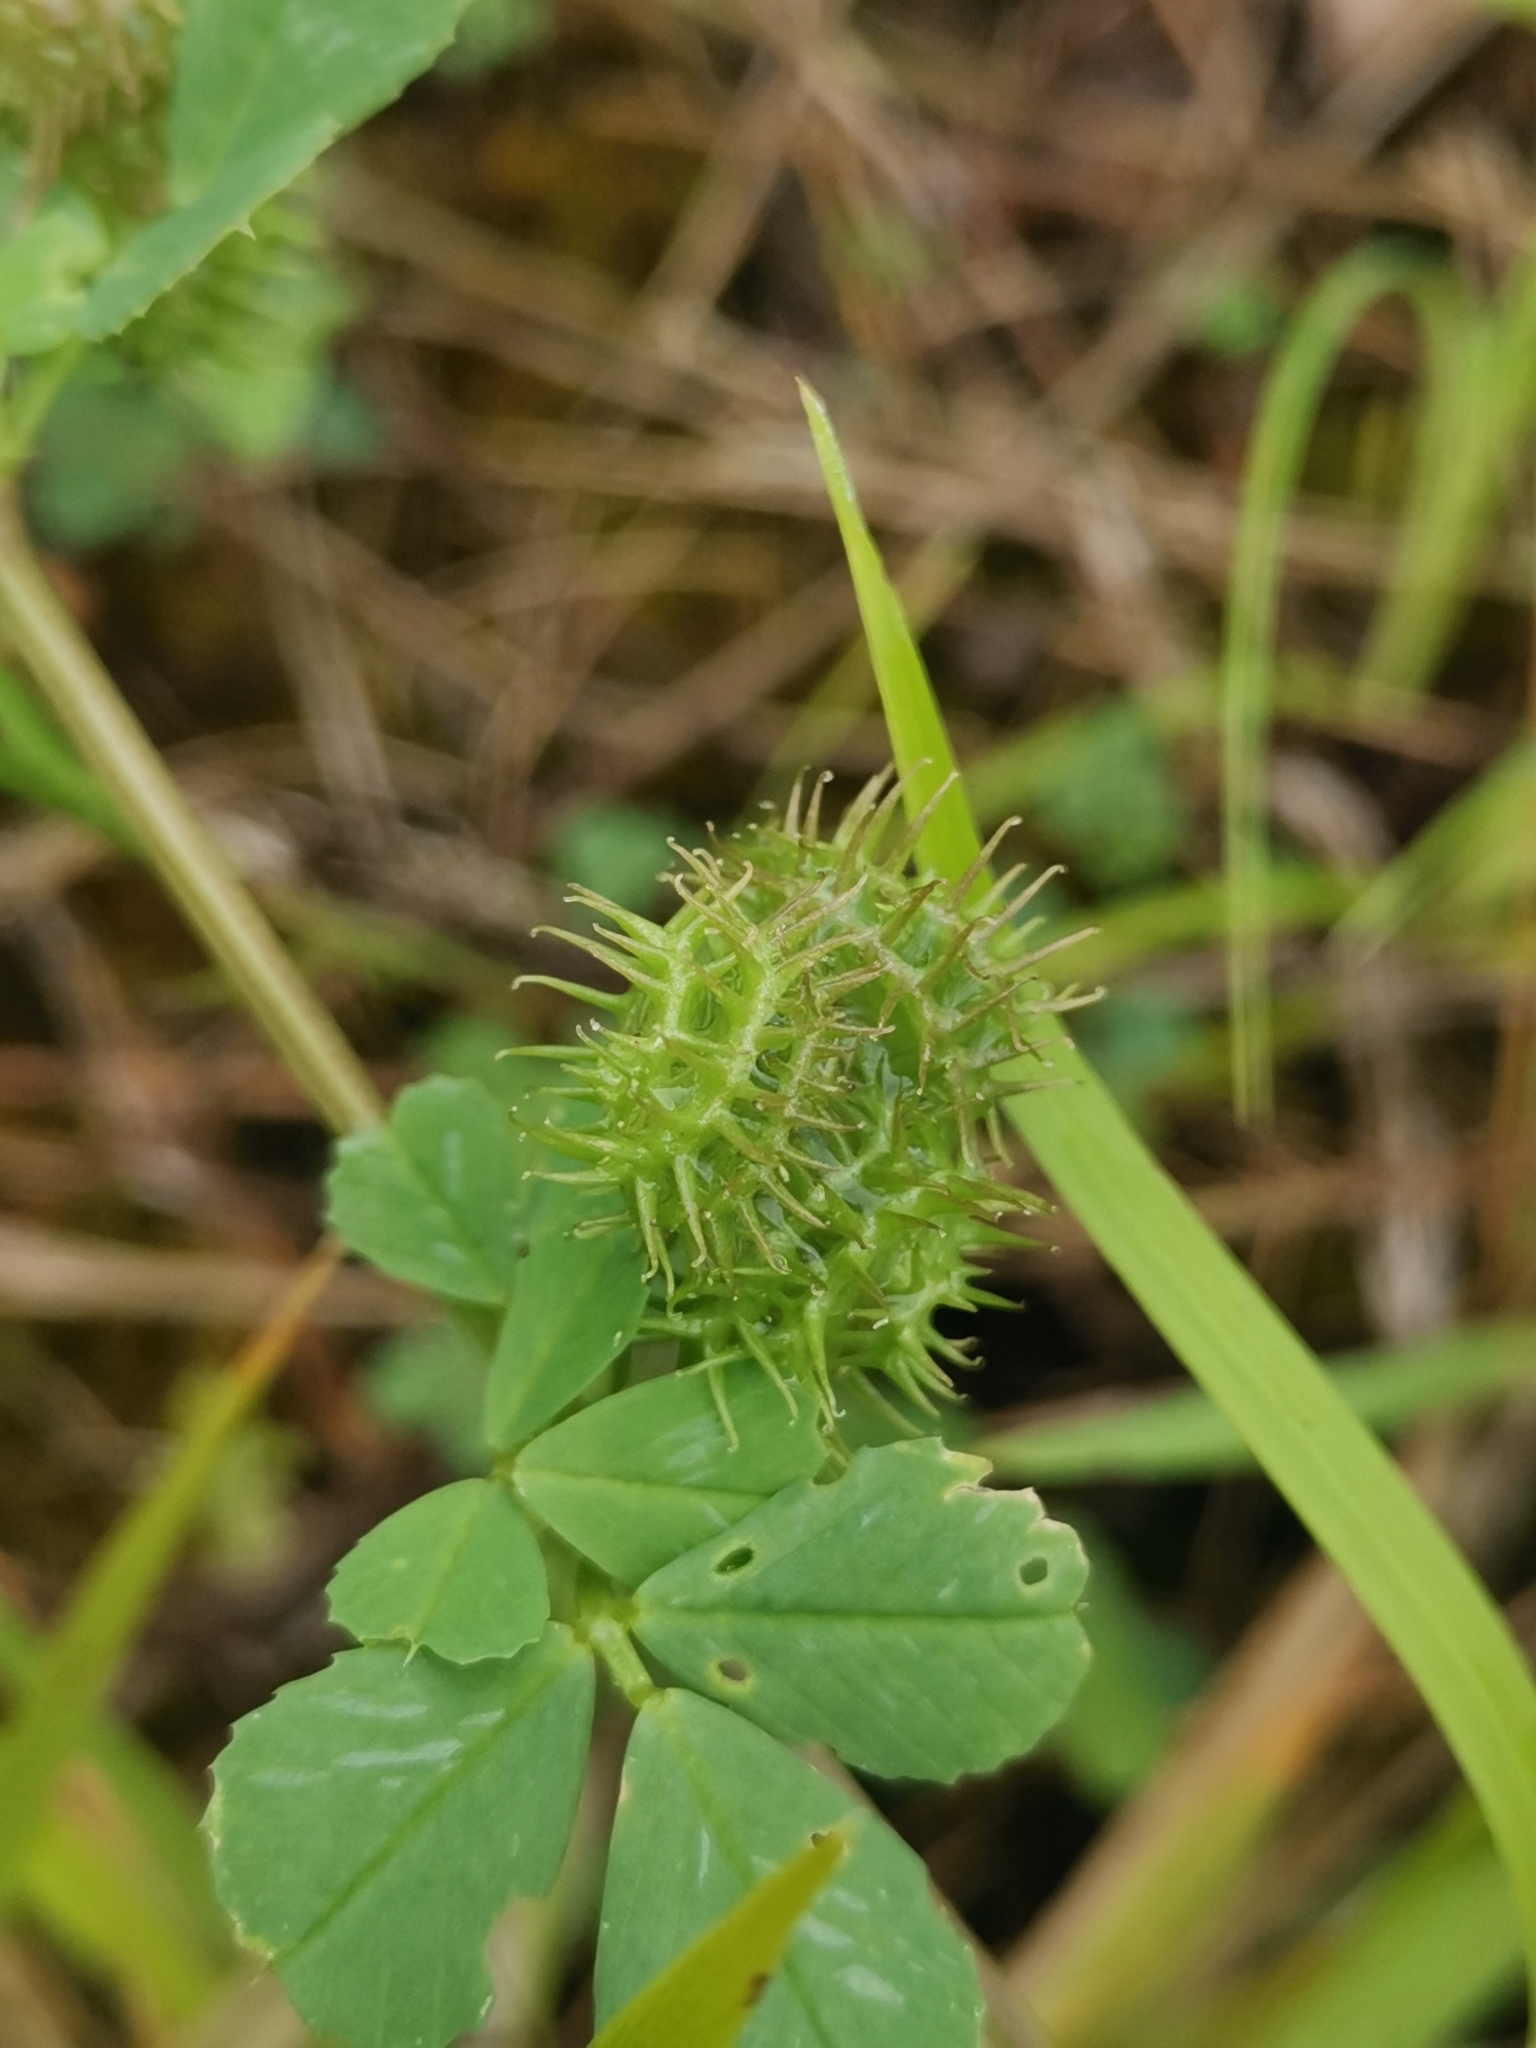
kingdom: Plantae
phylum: Tracheophyta
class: Magnoliopsida
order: Fabales
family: Fabaceae
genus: Medicago
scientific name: Medicago arabica
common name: Spotted medick
